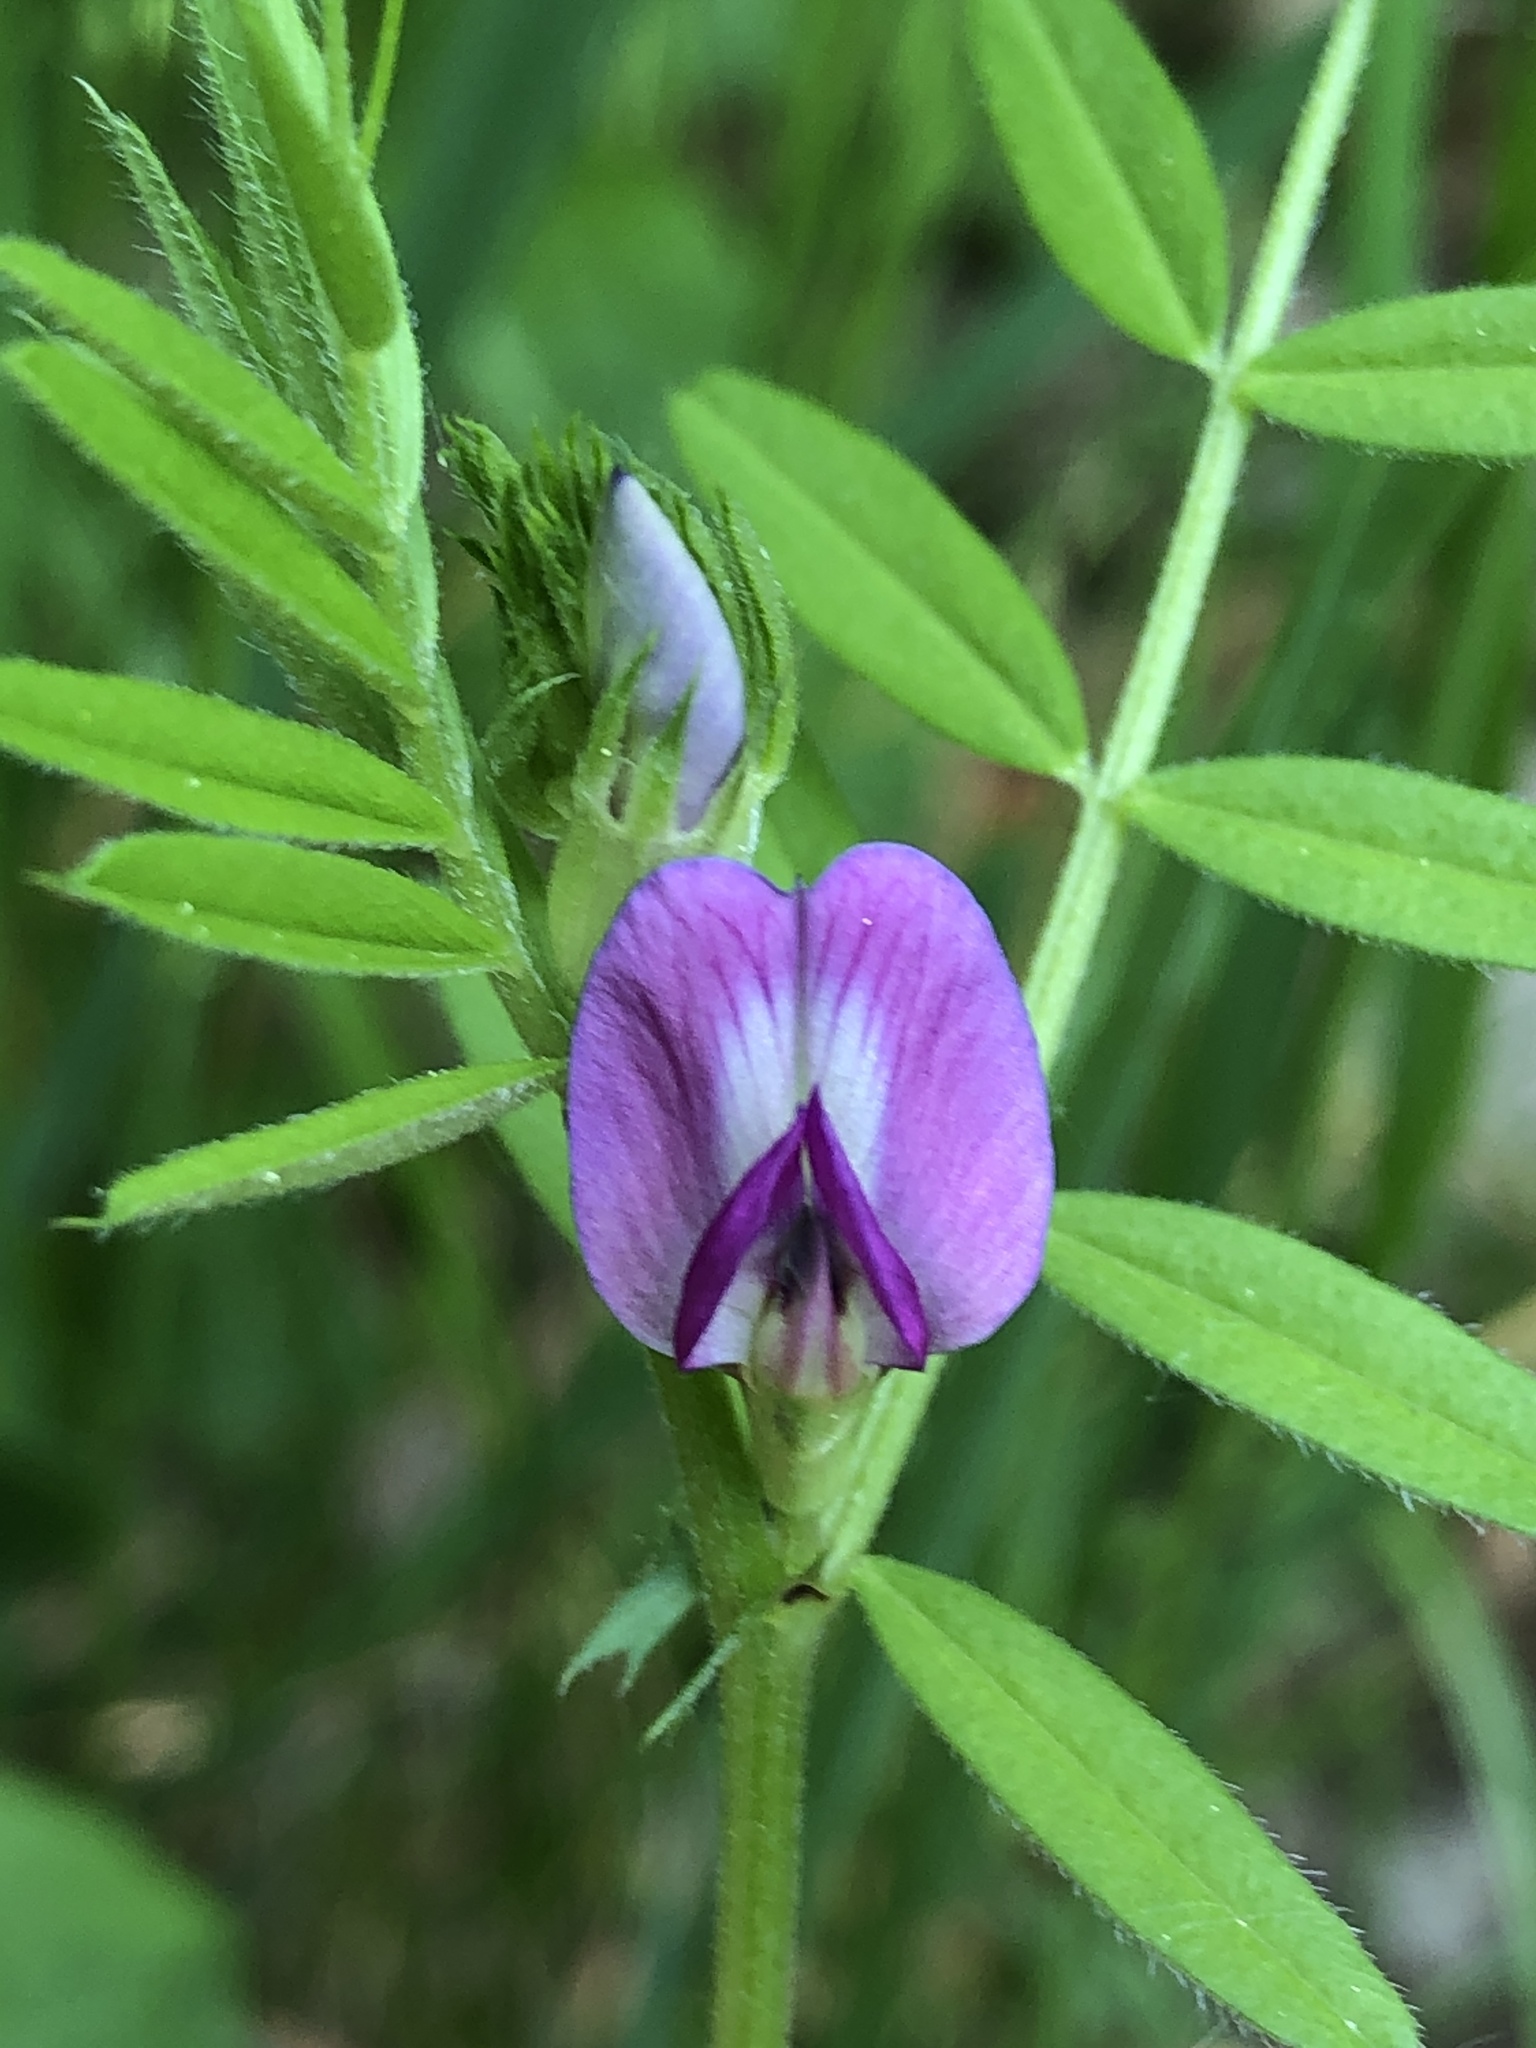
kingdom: Plantae
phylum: Tracheophyta
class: Magnoliopsida
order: Fabales
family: Fabaceae
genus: Vicia
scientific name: Vicia sativa
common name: Garden vetch
